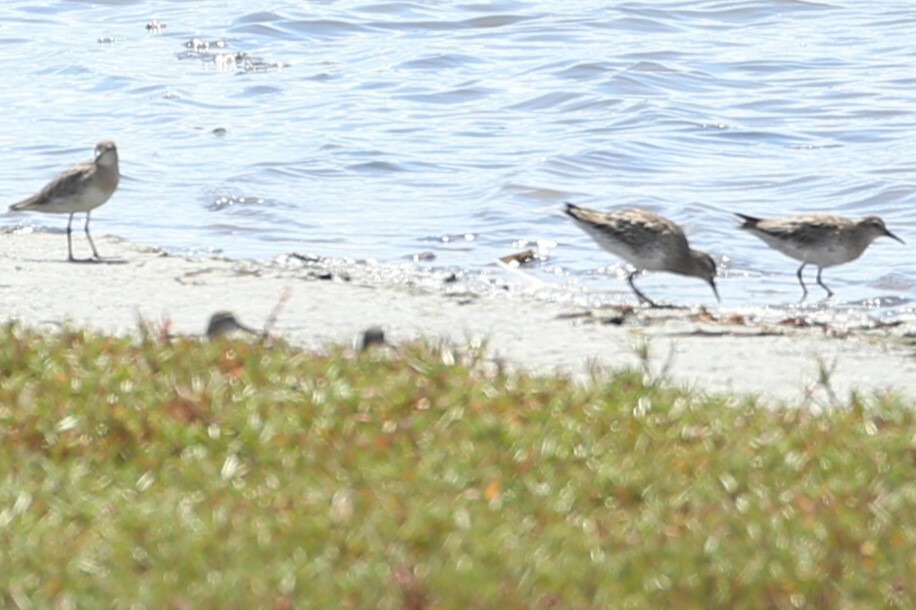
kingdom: Animalia
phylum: Chordata
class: Aves
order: Charadriiformes
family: Scolopacidae
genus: Actitis
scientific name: Actitis hypoleucos
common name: Common sandpiper
